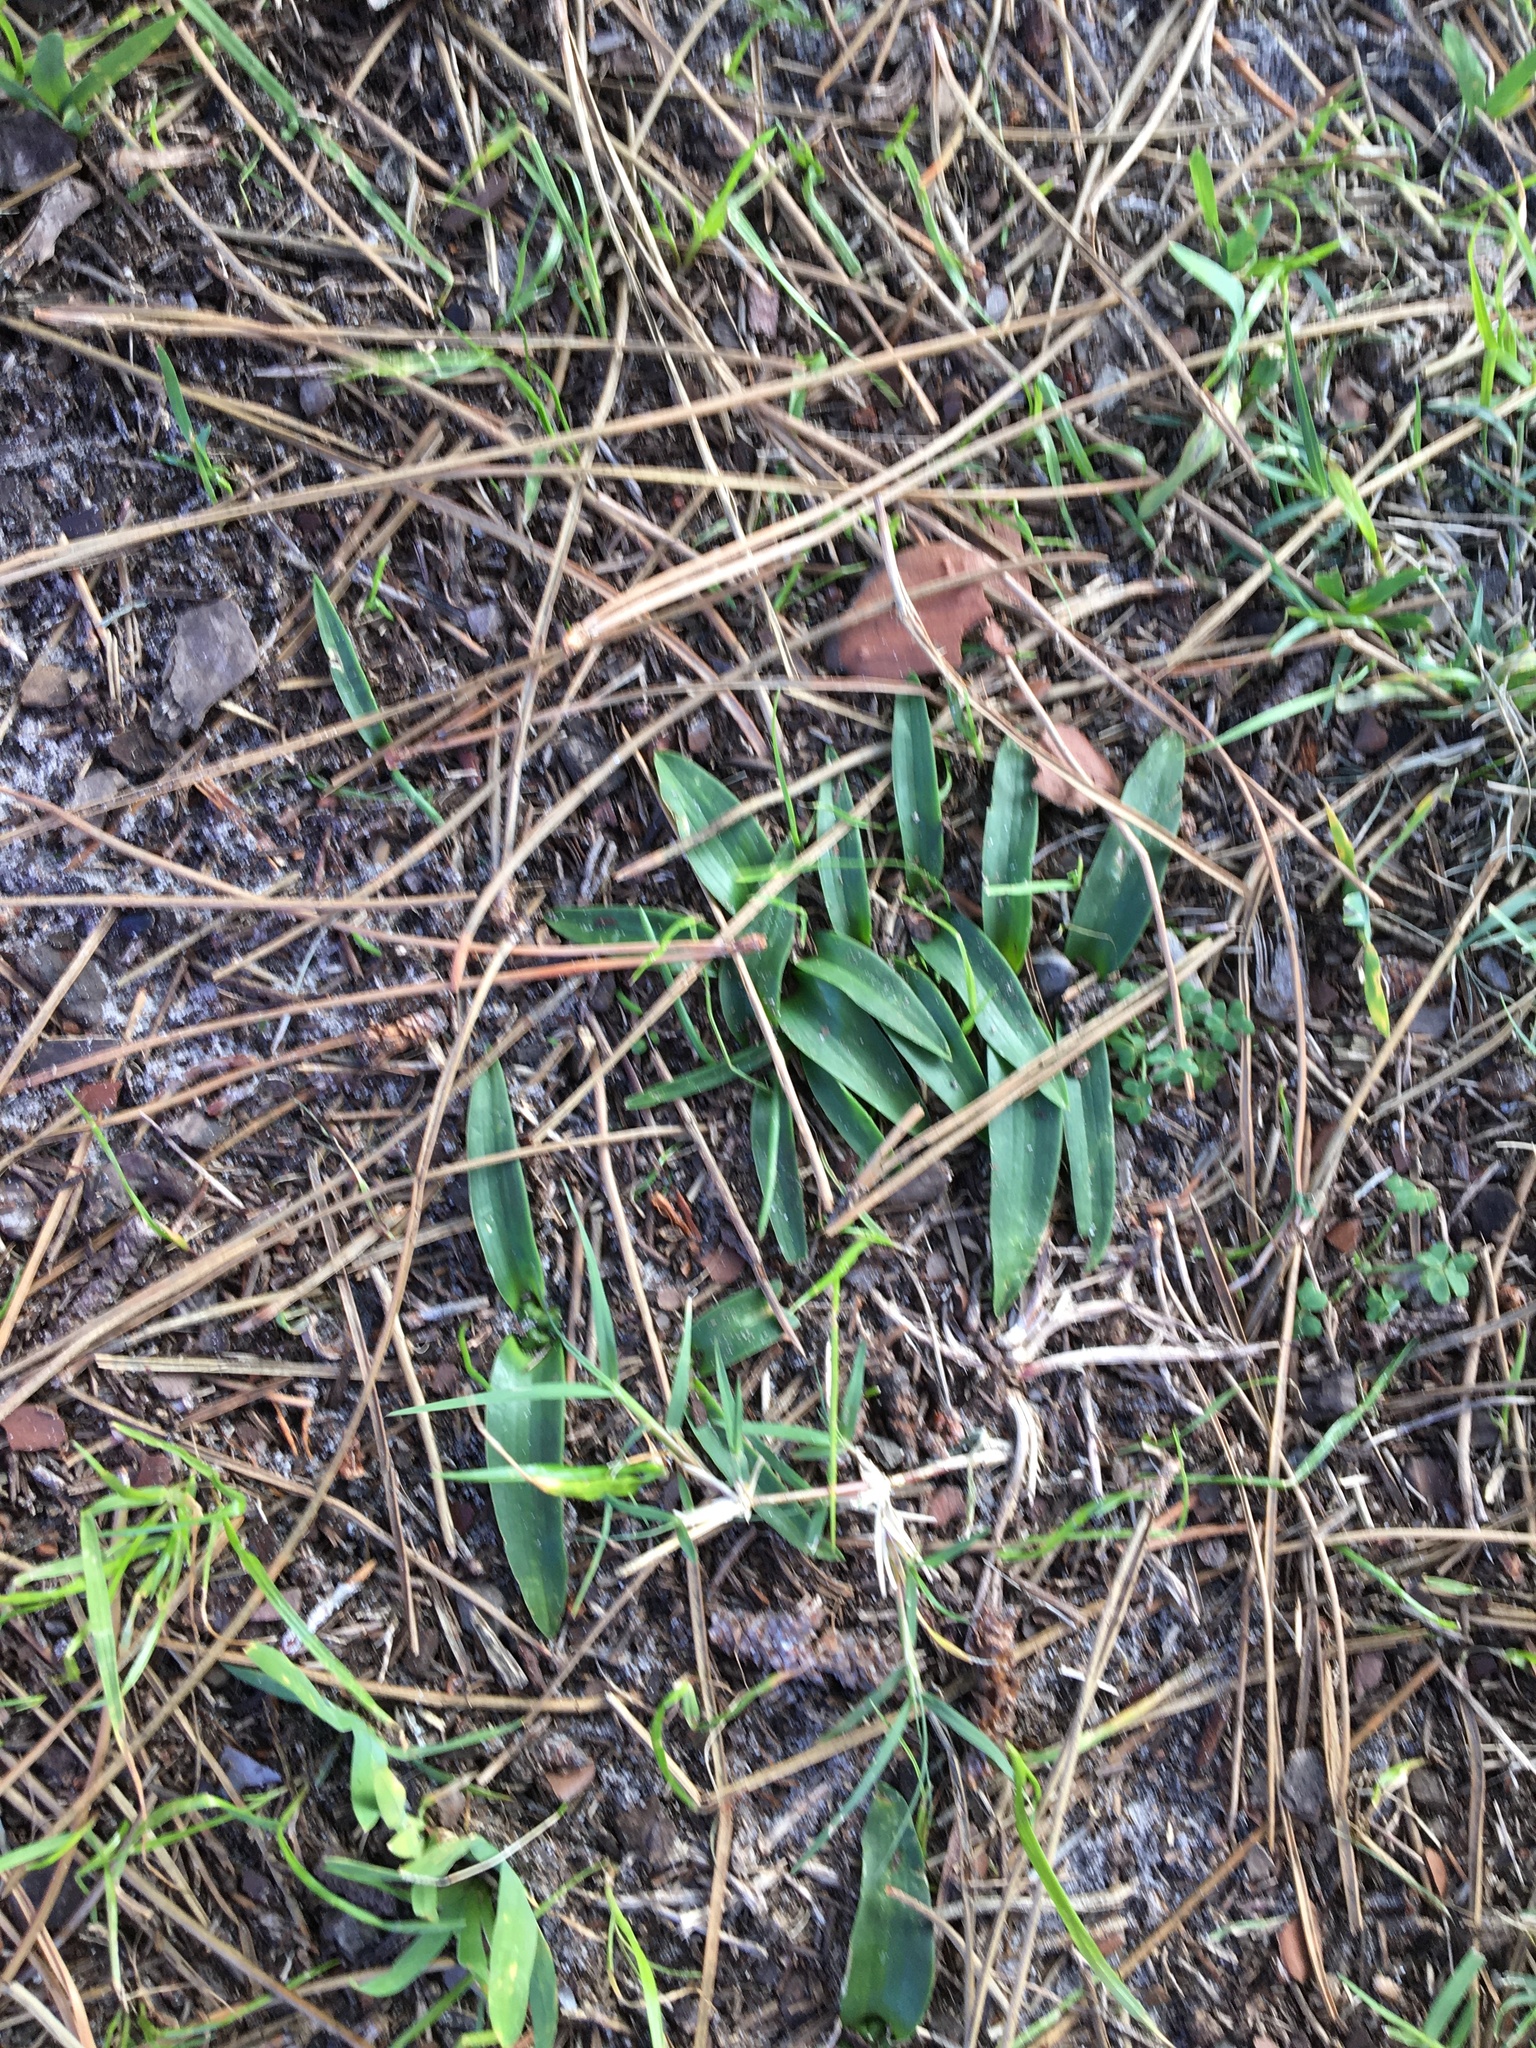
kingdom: Plantae
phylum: Tracheophyta
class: Liliopsida
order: Asparagales
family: Asparagaceae
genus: Lachenalia
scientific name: Lachenalia ensifolia
